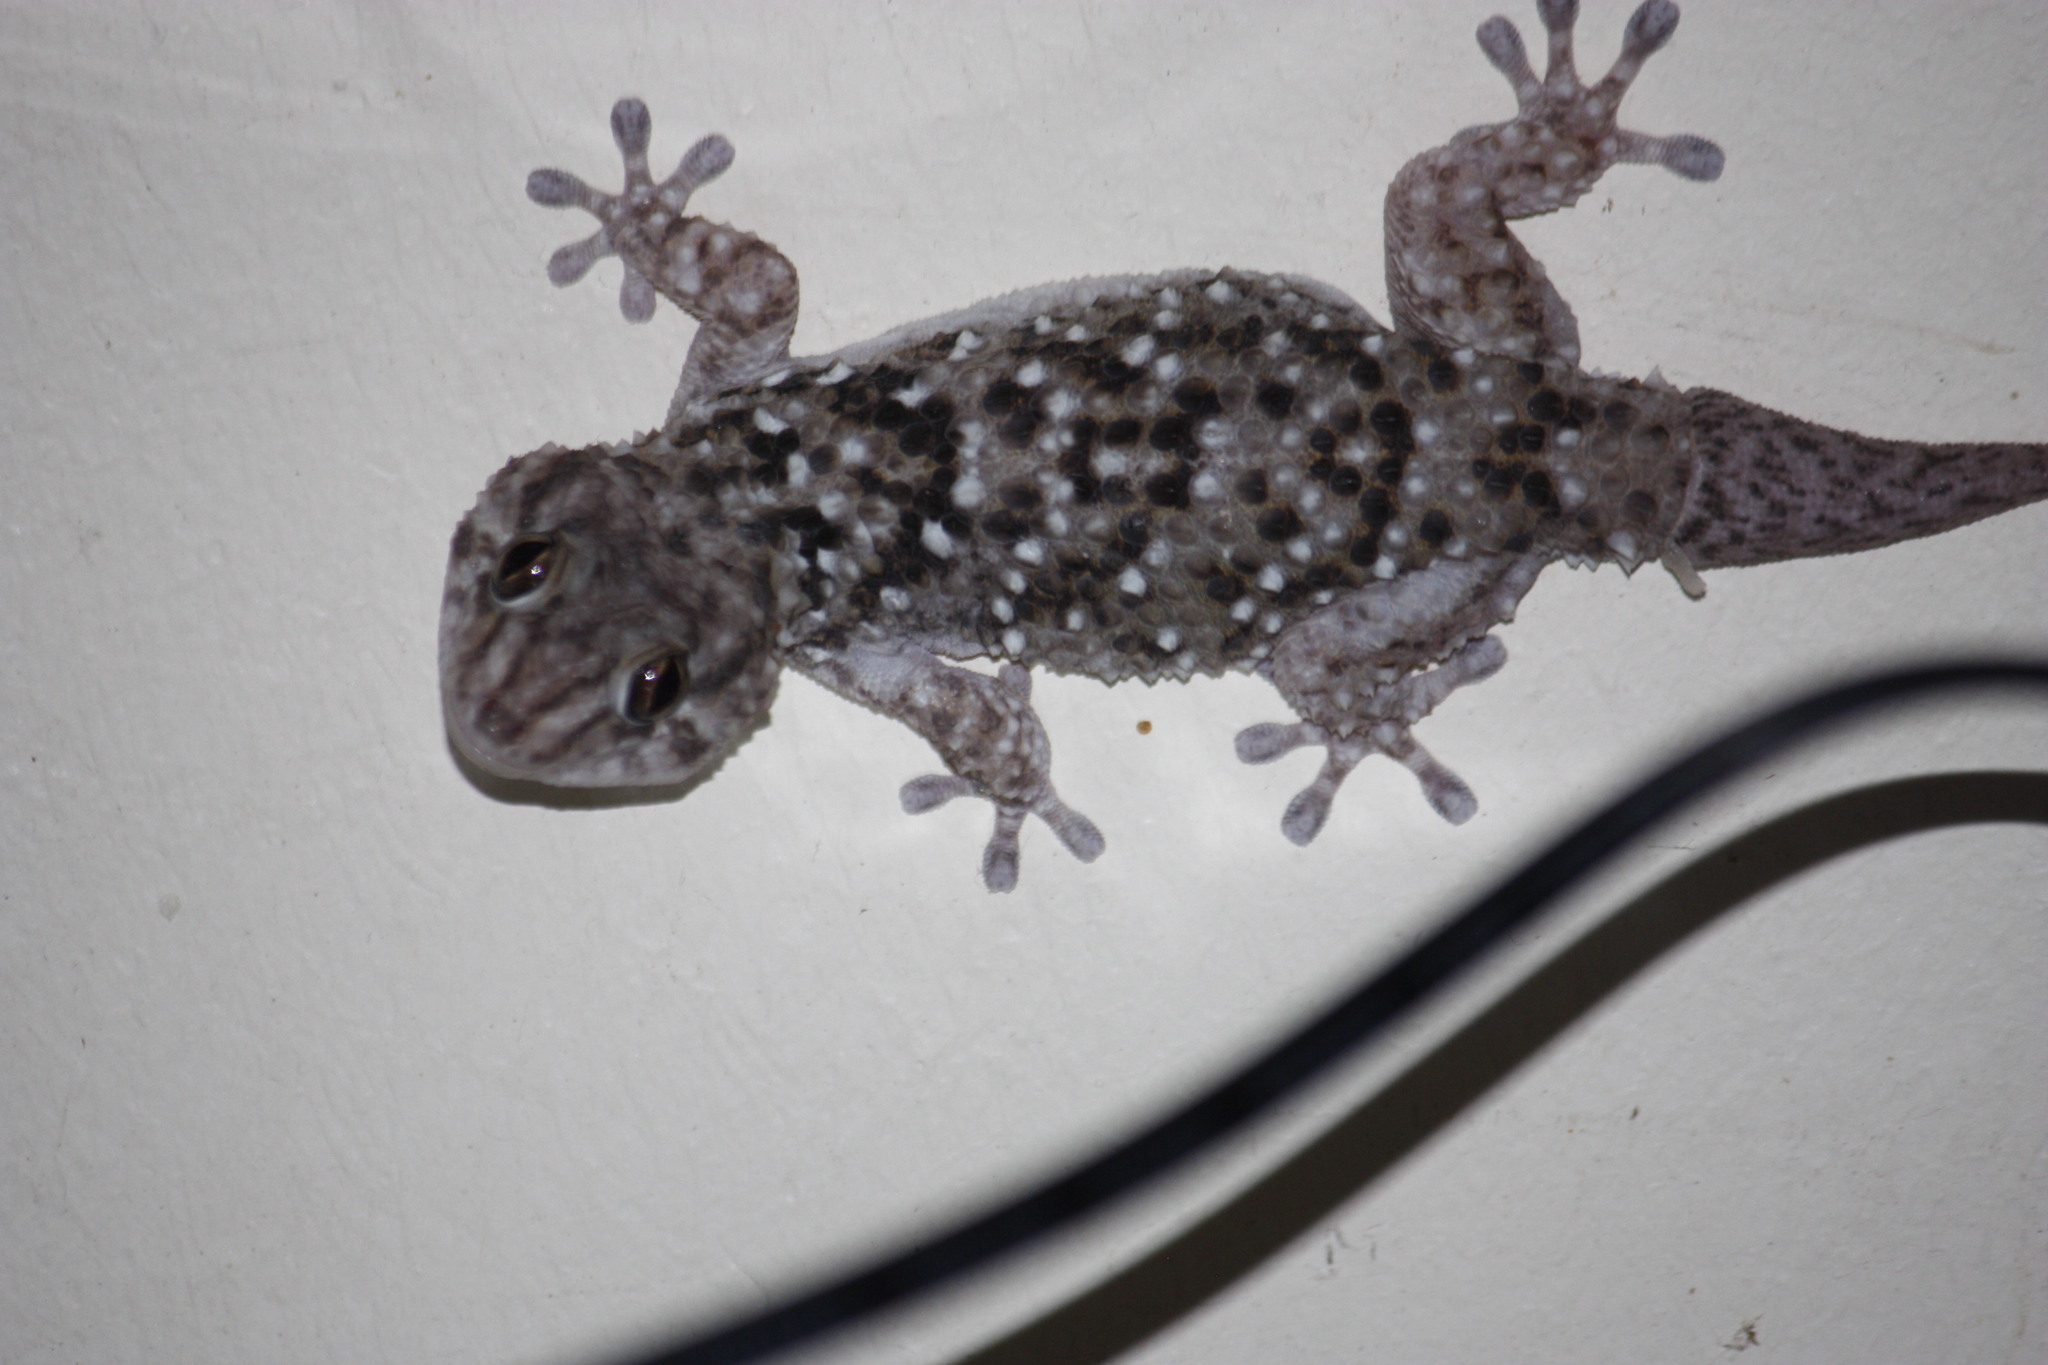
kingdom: Animalia
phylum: Chordata
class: Squamata
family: Gekkonidae
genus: Chondrodactylus
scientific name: Chondrodactylus turneri
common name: Turner’s gecko
